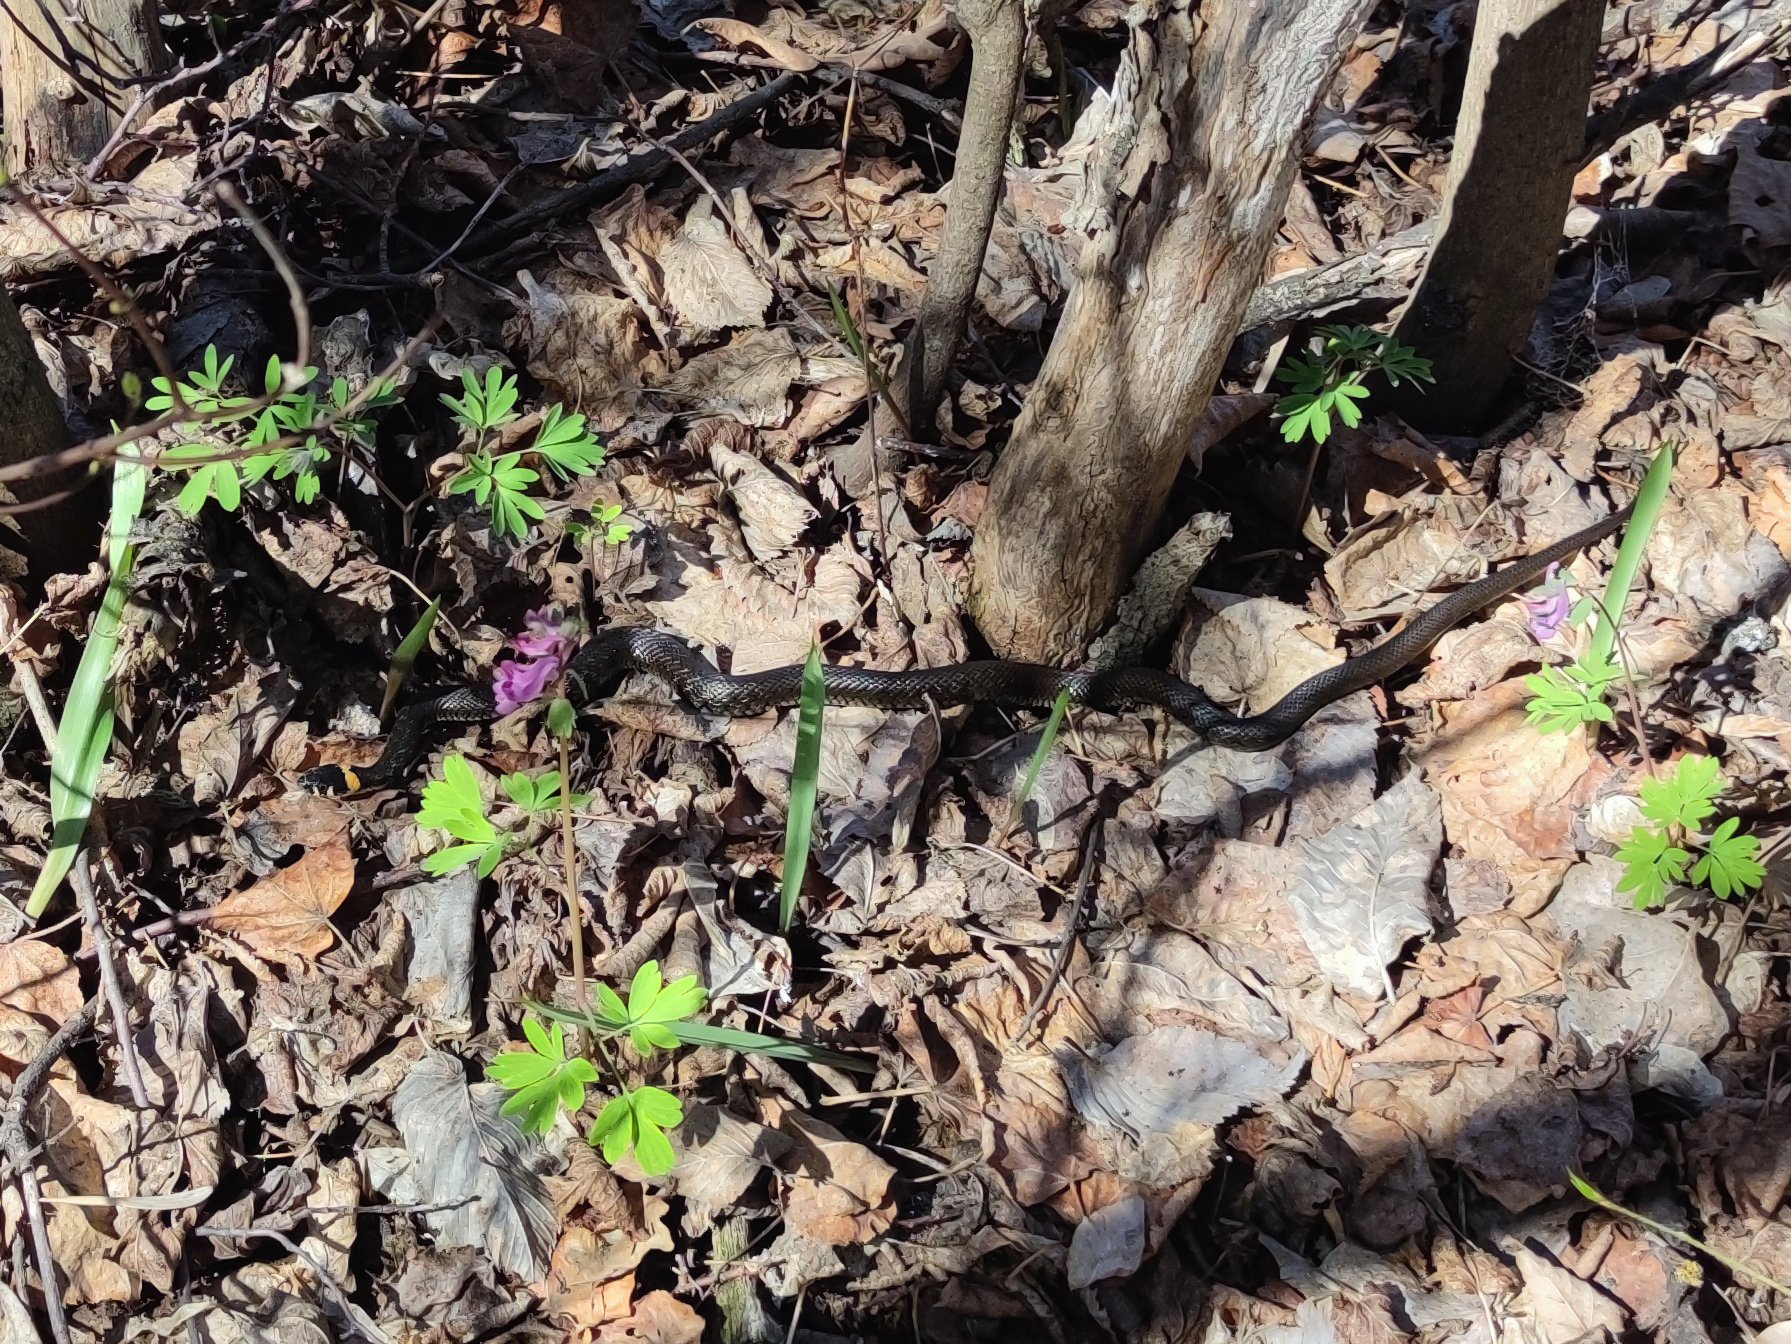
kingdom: Animalia
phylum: Chordata
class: Squamata
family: Colubridae
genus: Natrix
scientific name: Natrix natrix
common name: Grass snake
